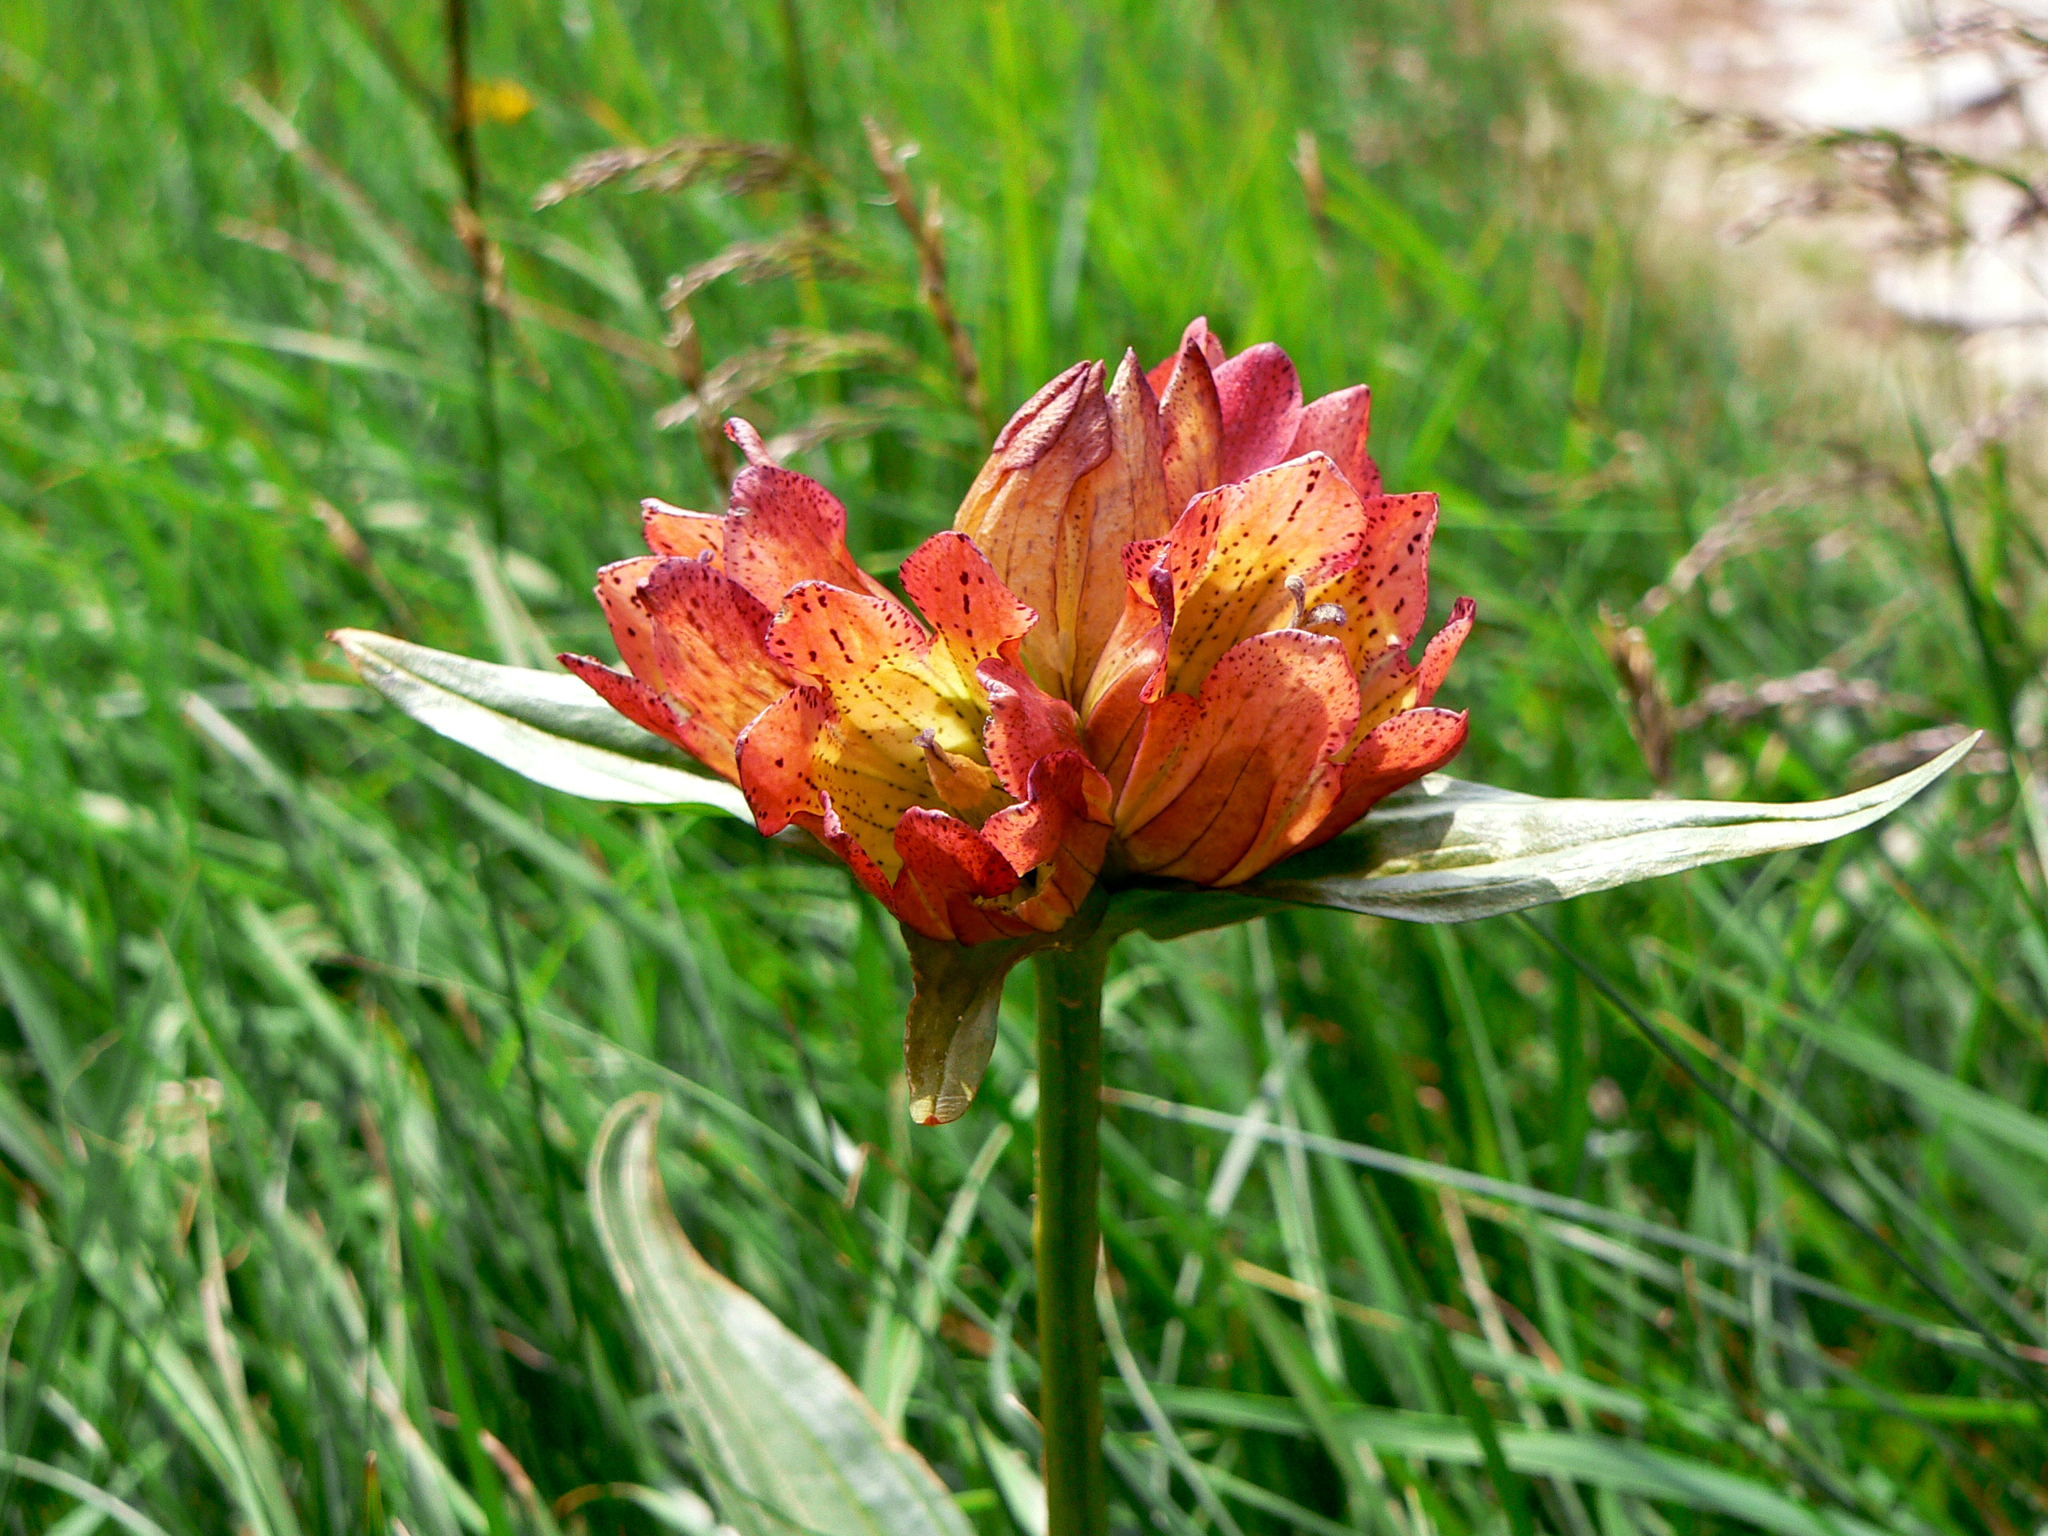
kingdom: Plantae
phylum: Tracheophyta
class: Magnoliopsida
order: Gentianales
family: Gentianaceae
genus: Gentiana
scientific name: Gentiana gaudiniana
